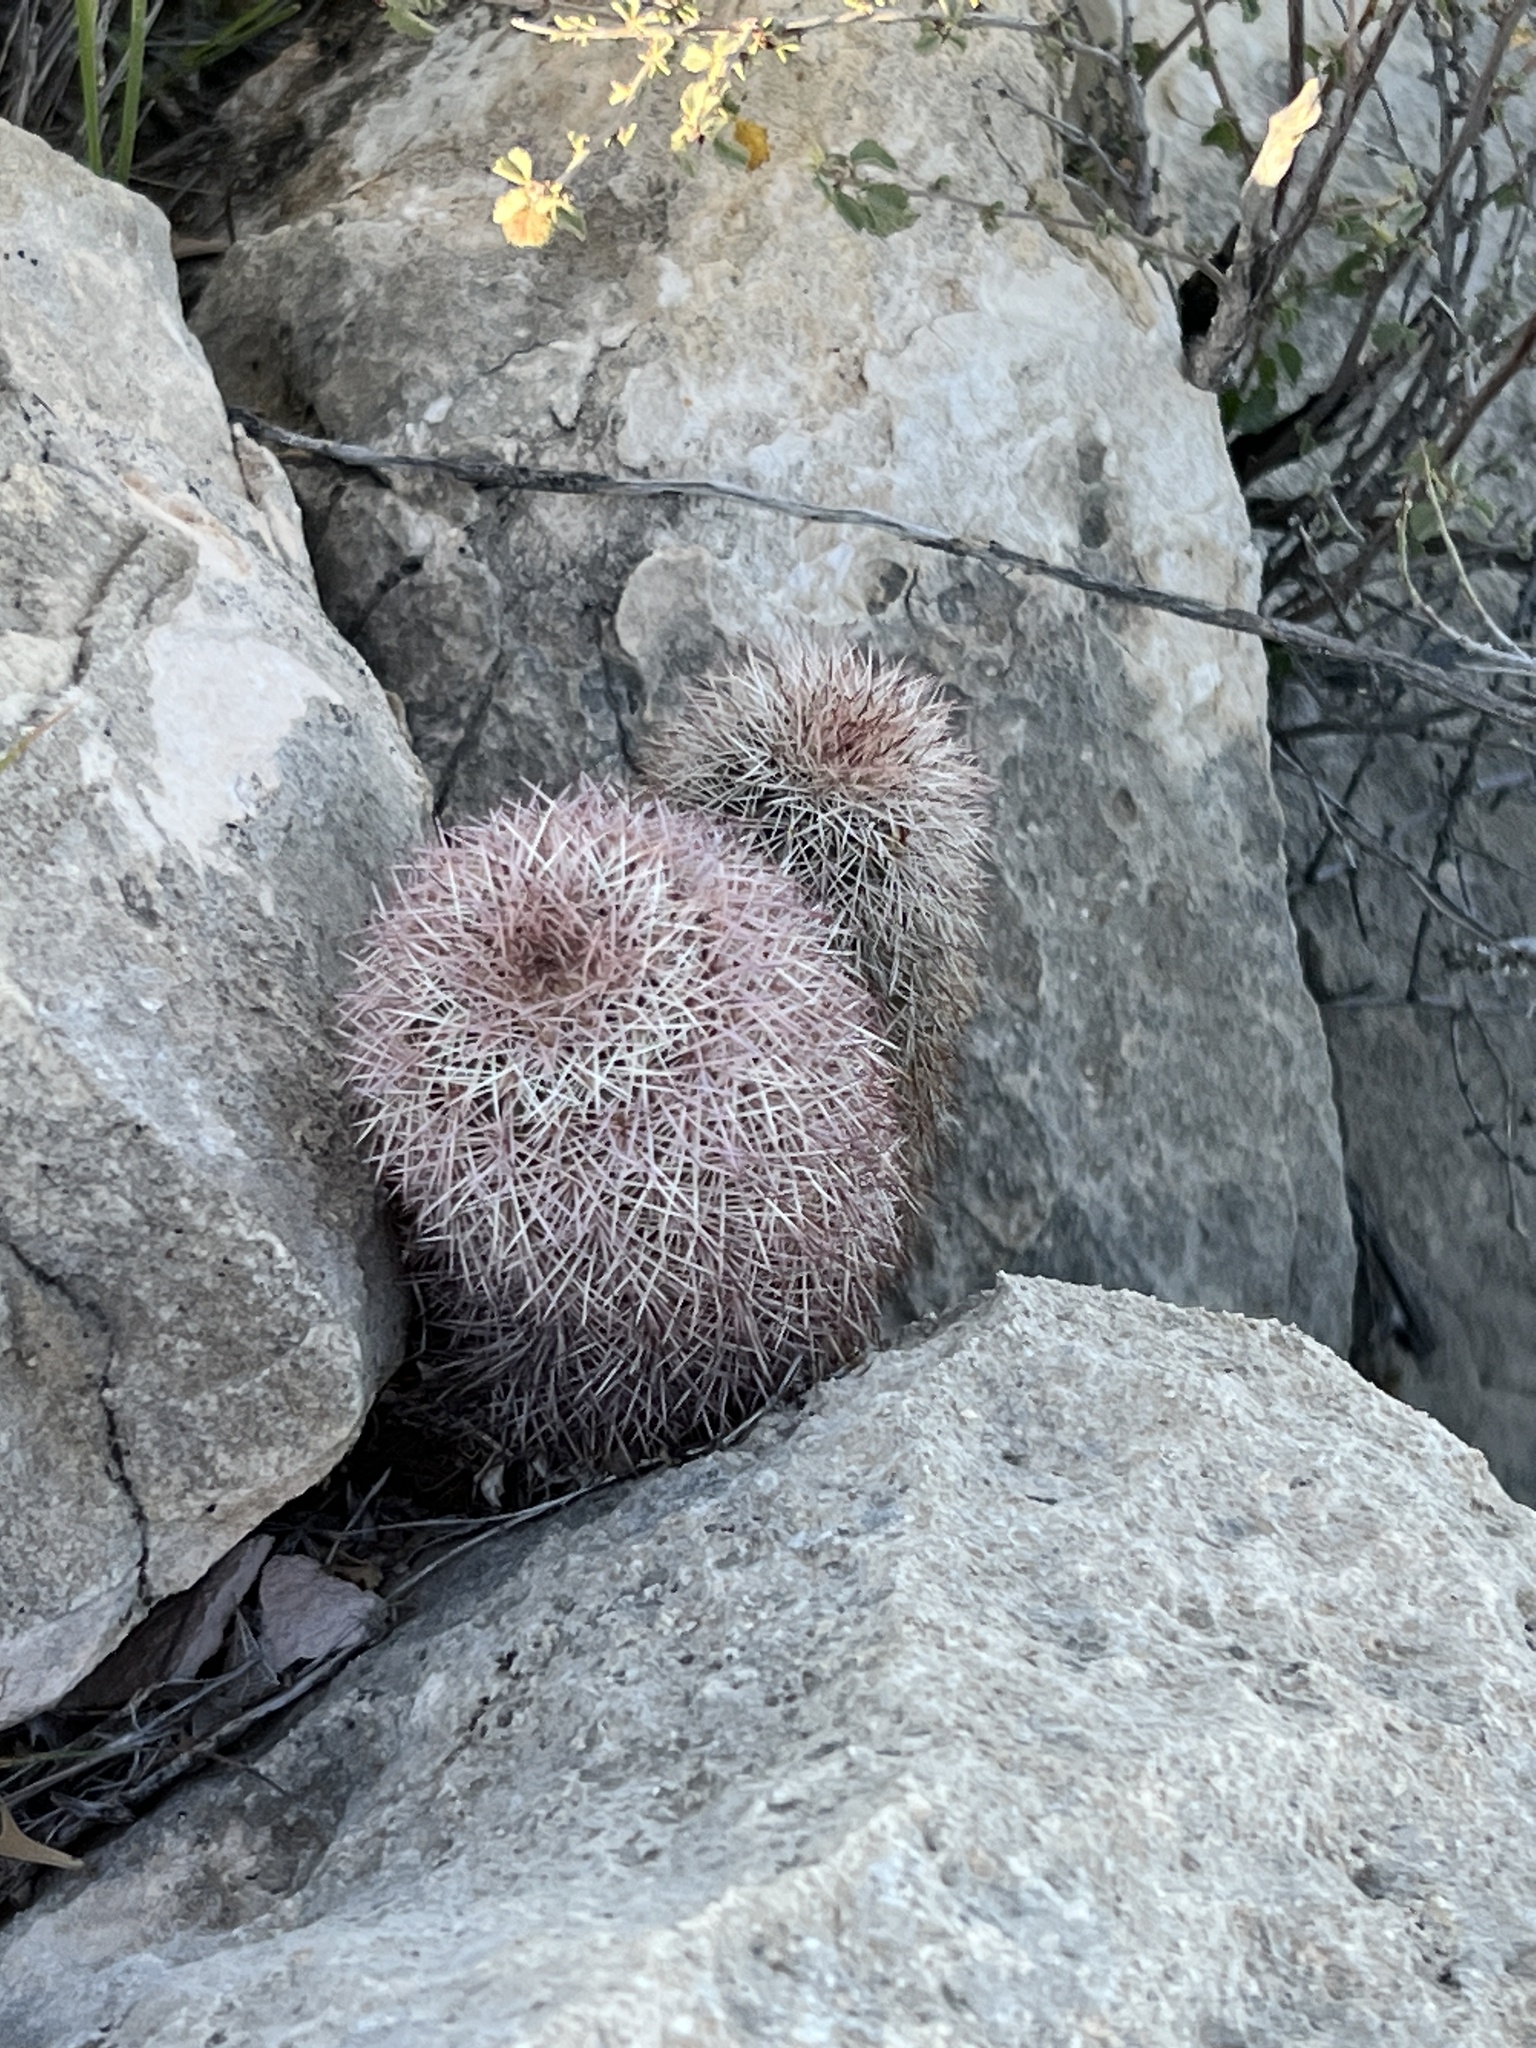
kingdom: Plantae
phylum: Tracheophyta
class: Magnoliopsida
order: Caryophyllales
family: Cactaceae
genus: Echinocereus
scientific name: Echinocereus dasyacanthus
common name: Spiny hedgehog cactus
